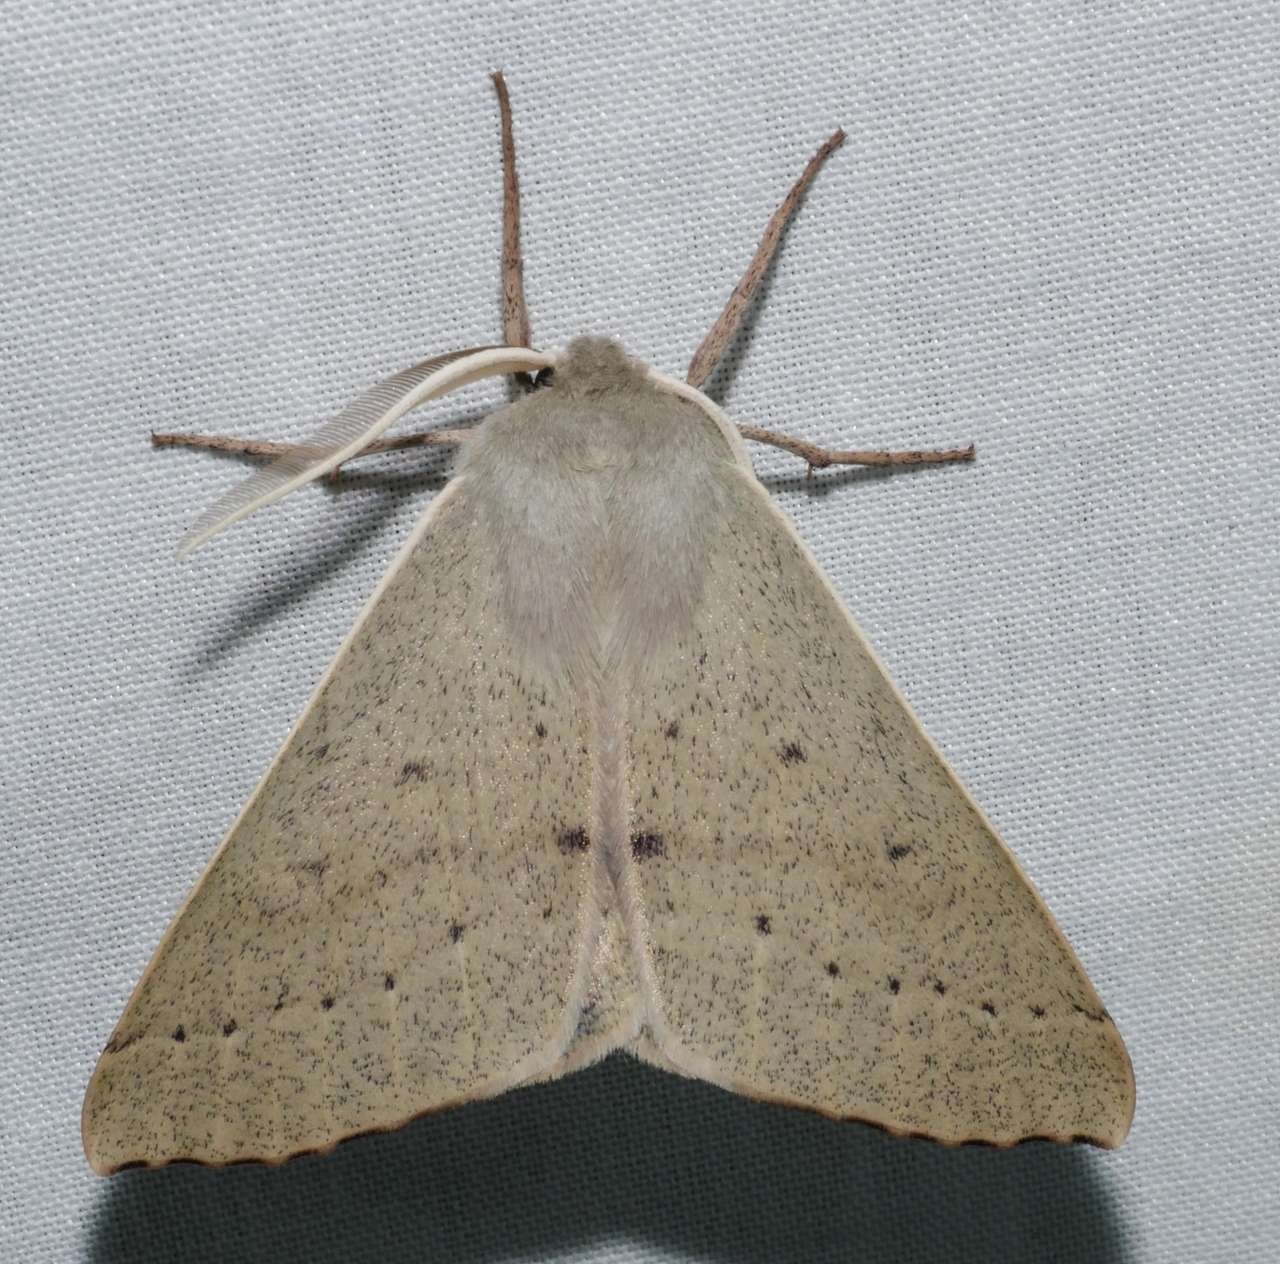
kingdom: Animalia
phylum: Arthropoda
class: Insecta
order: Lepidoptera
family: Geometridae
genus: Arhodia
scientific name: Arhodia lasiocamparia
